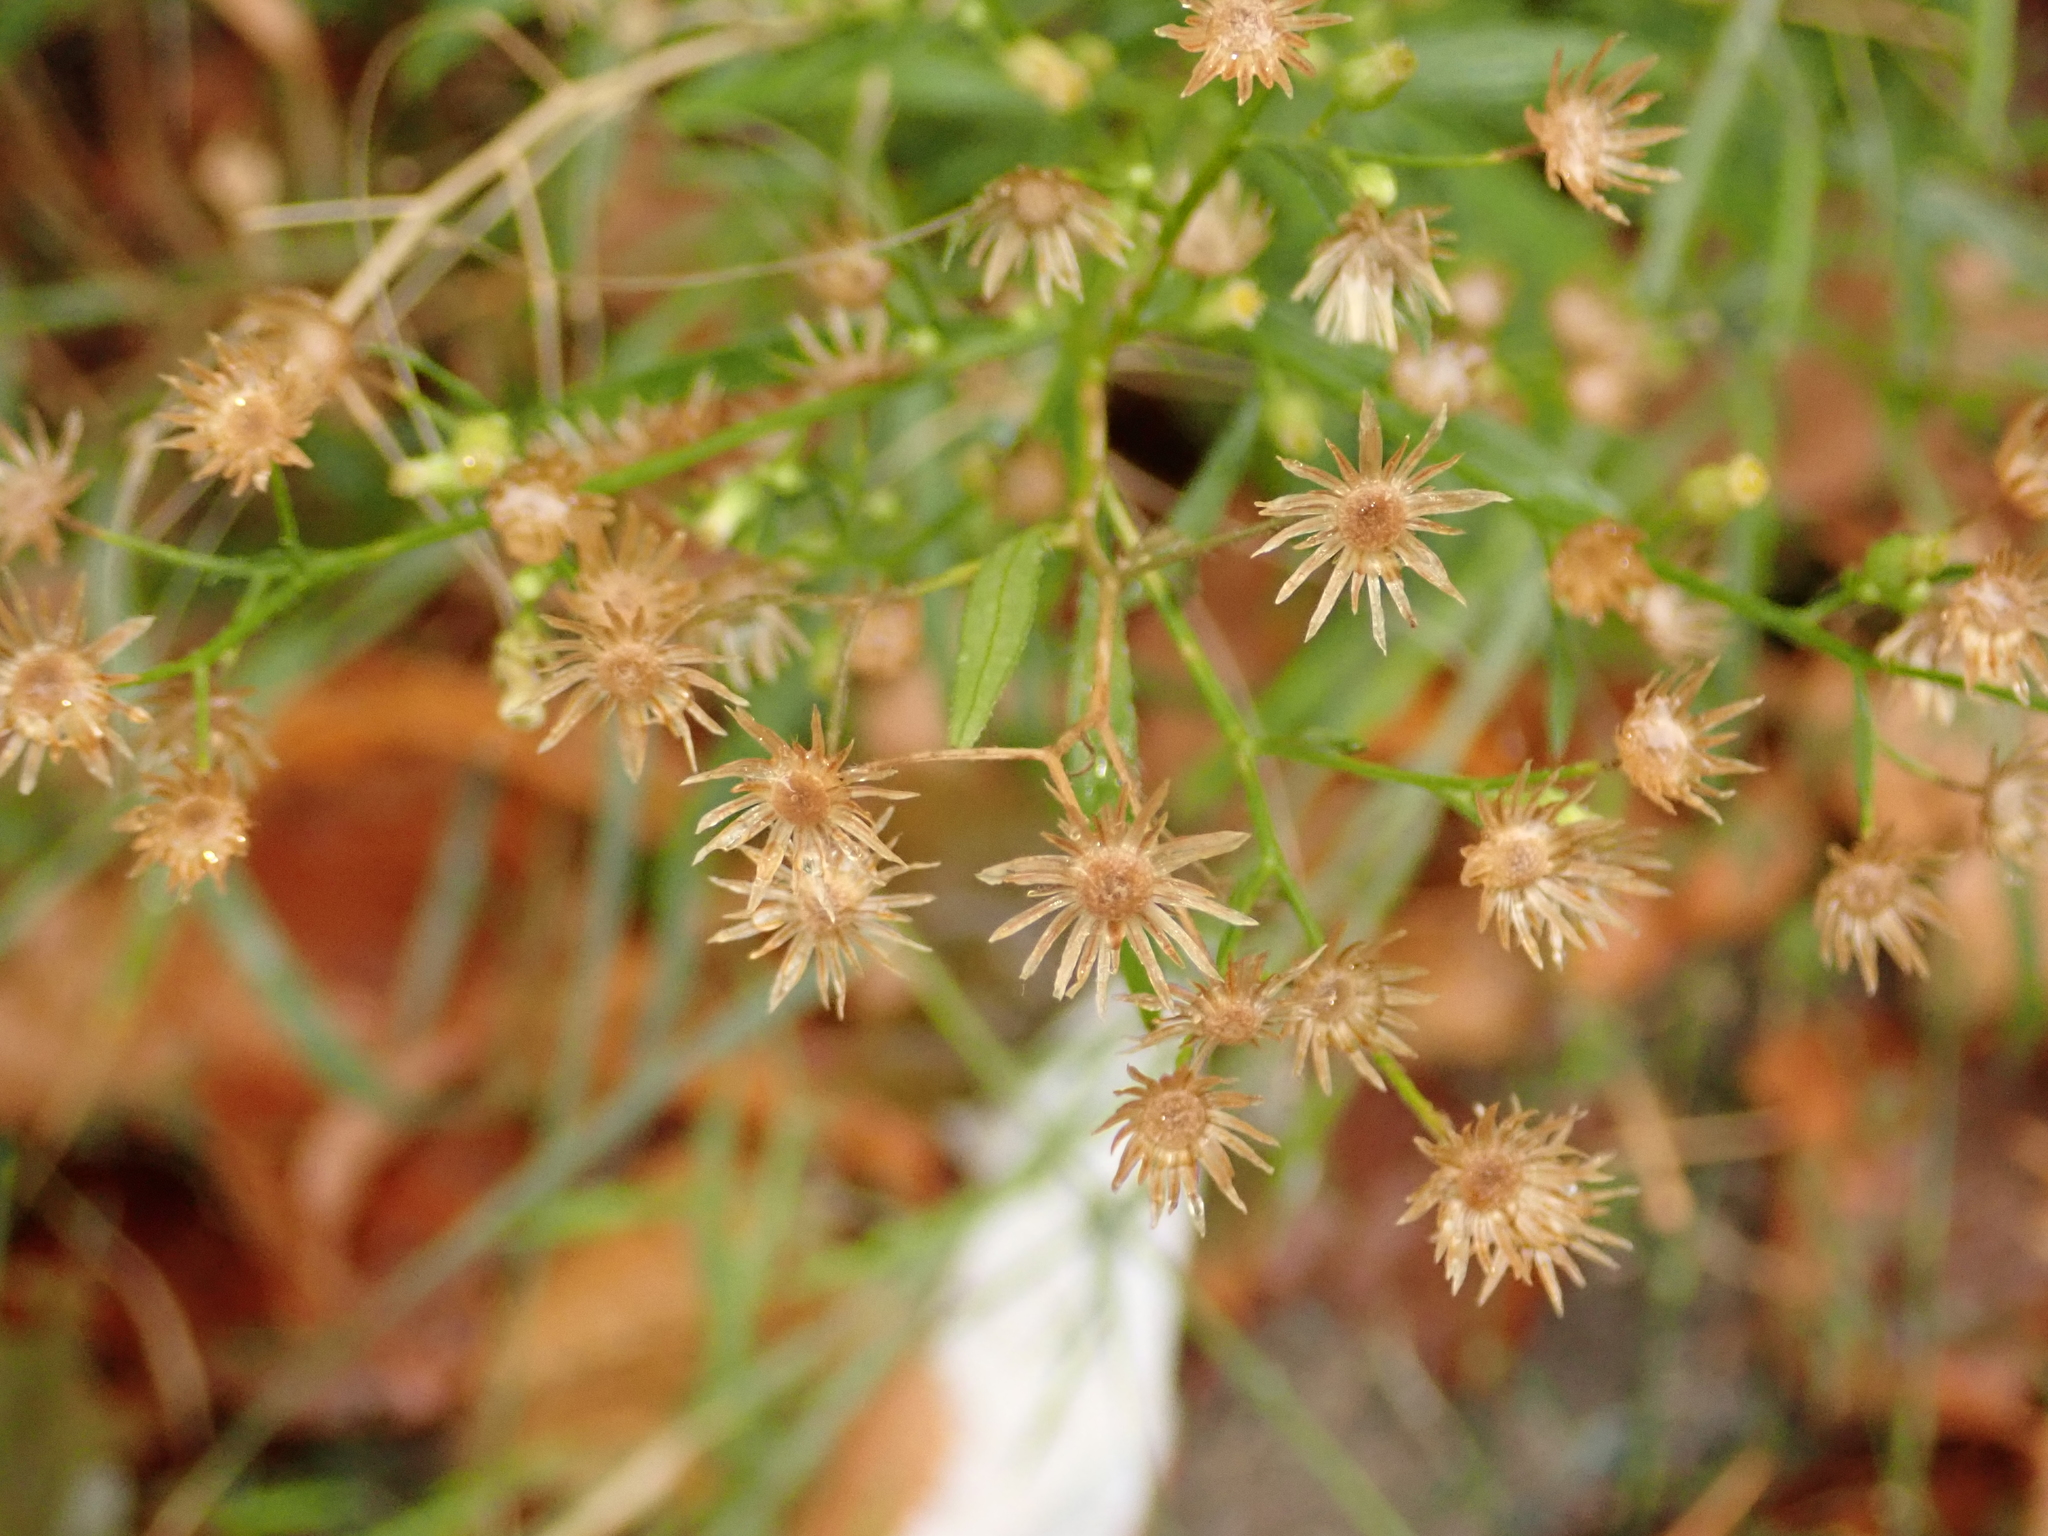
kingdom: Plantae
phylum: Tracheophyta
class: Magnoliopsida
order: Asterales
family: Asteraceae
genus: Erigeron
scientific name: Erigeron canadensis
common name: Canadian fleabane
